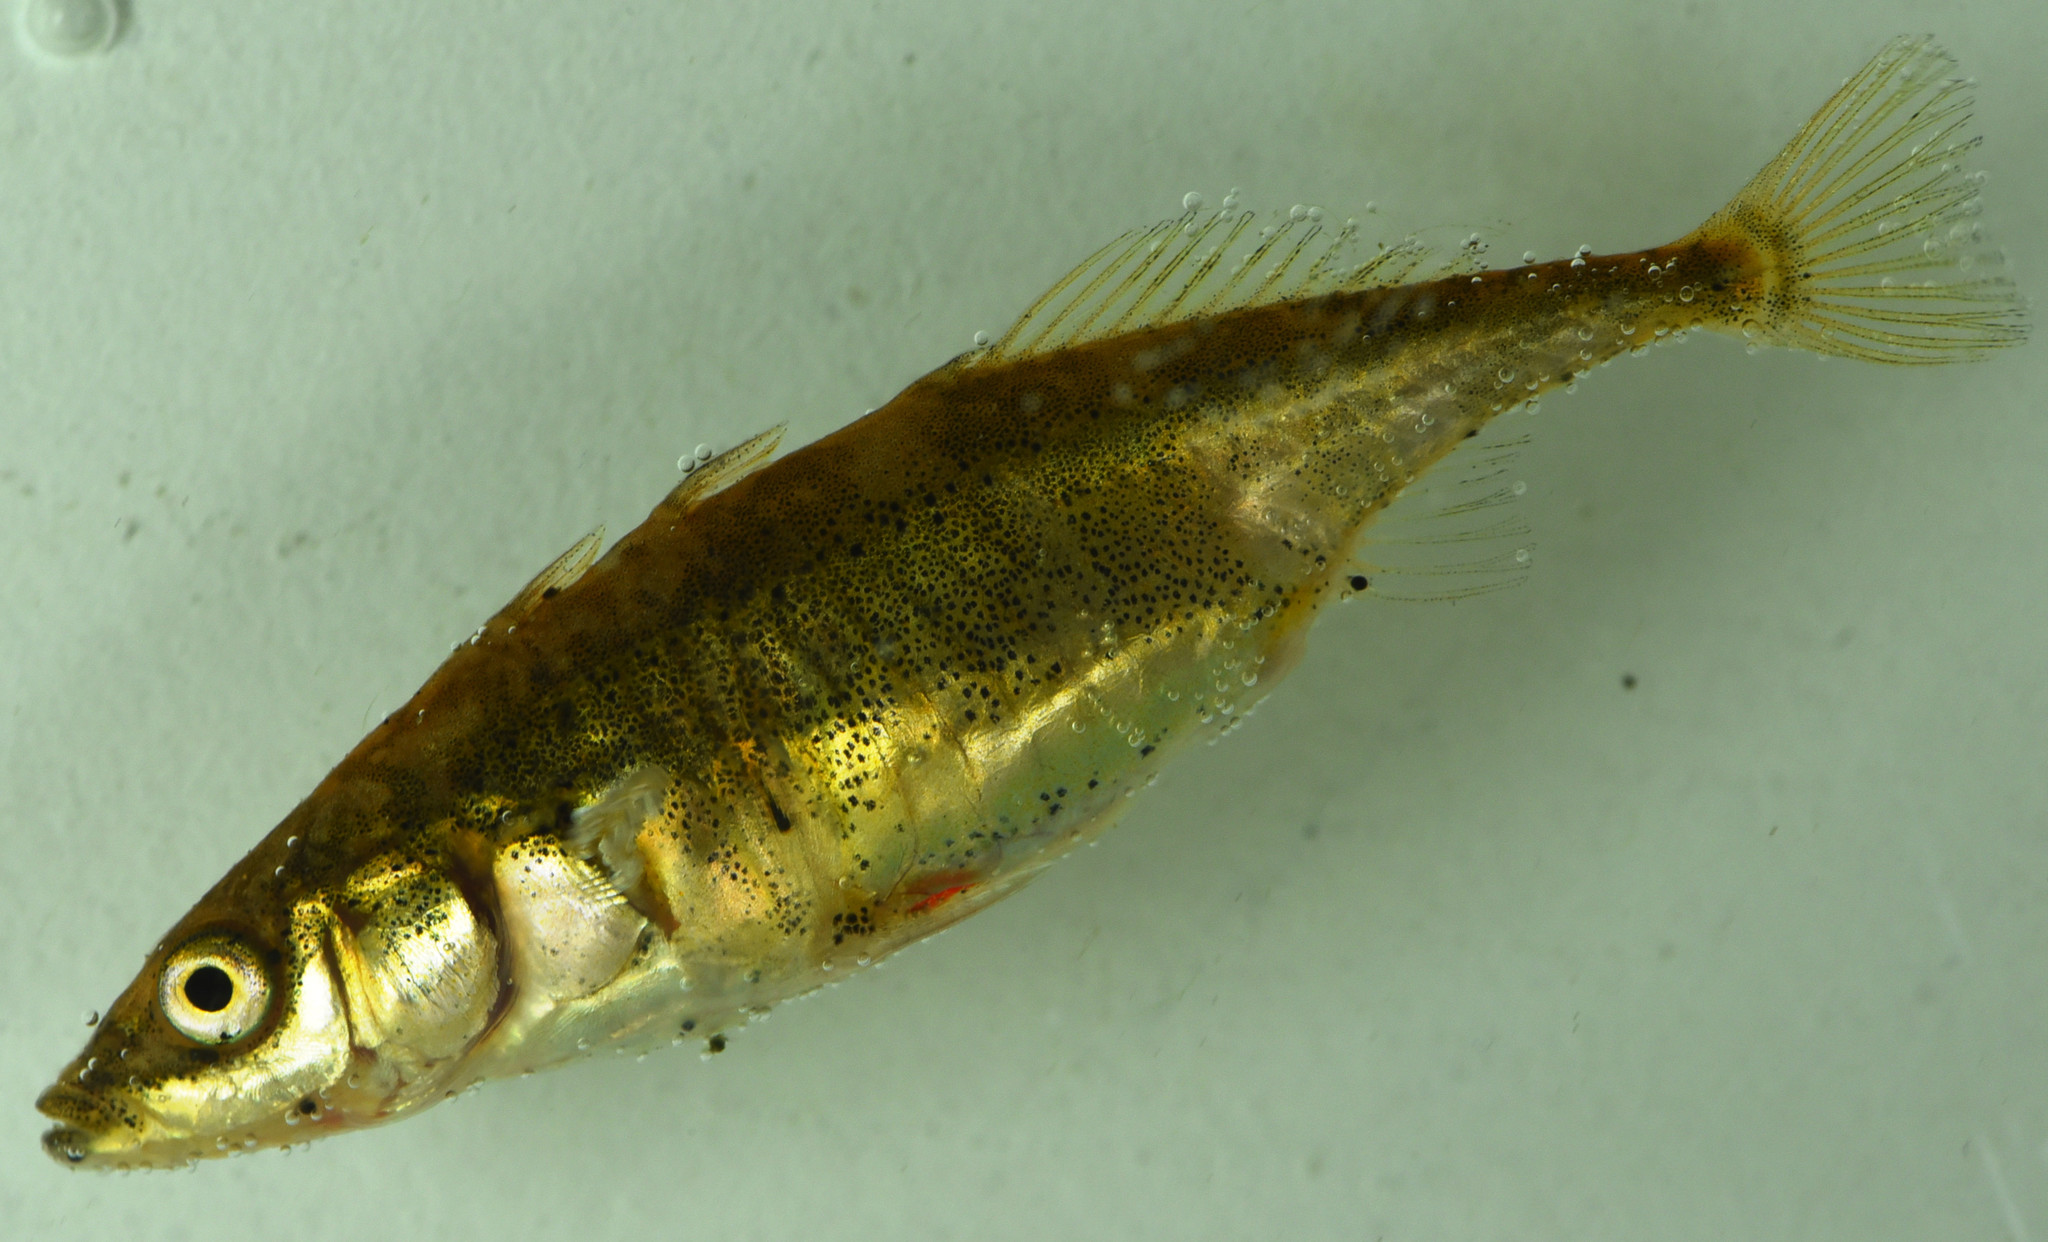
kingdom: Animalia
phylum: Chordata
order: Gasterosteiformes
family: Gasterosteidae
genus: Gasterosteus
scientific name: Gasterosteus aculeatus
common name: Three-spined stickleback
